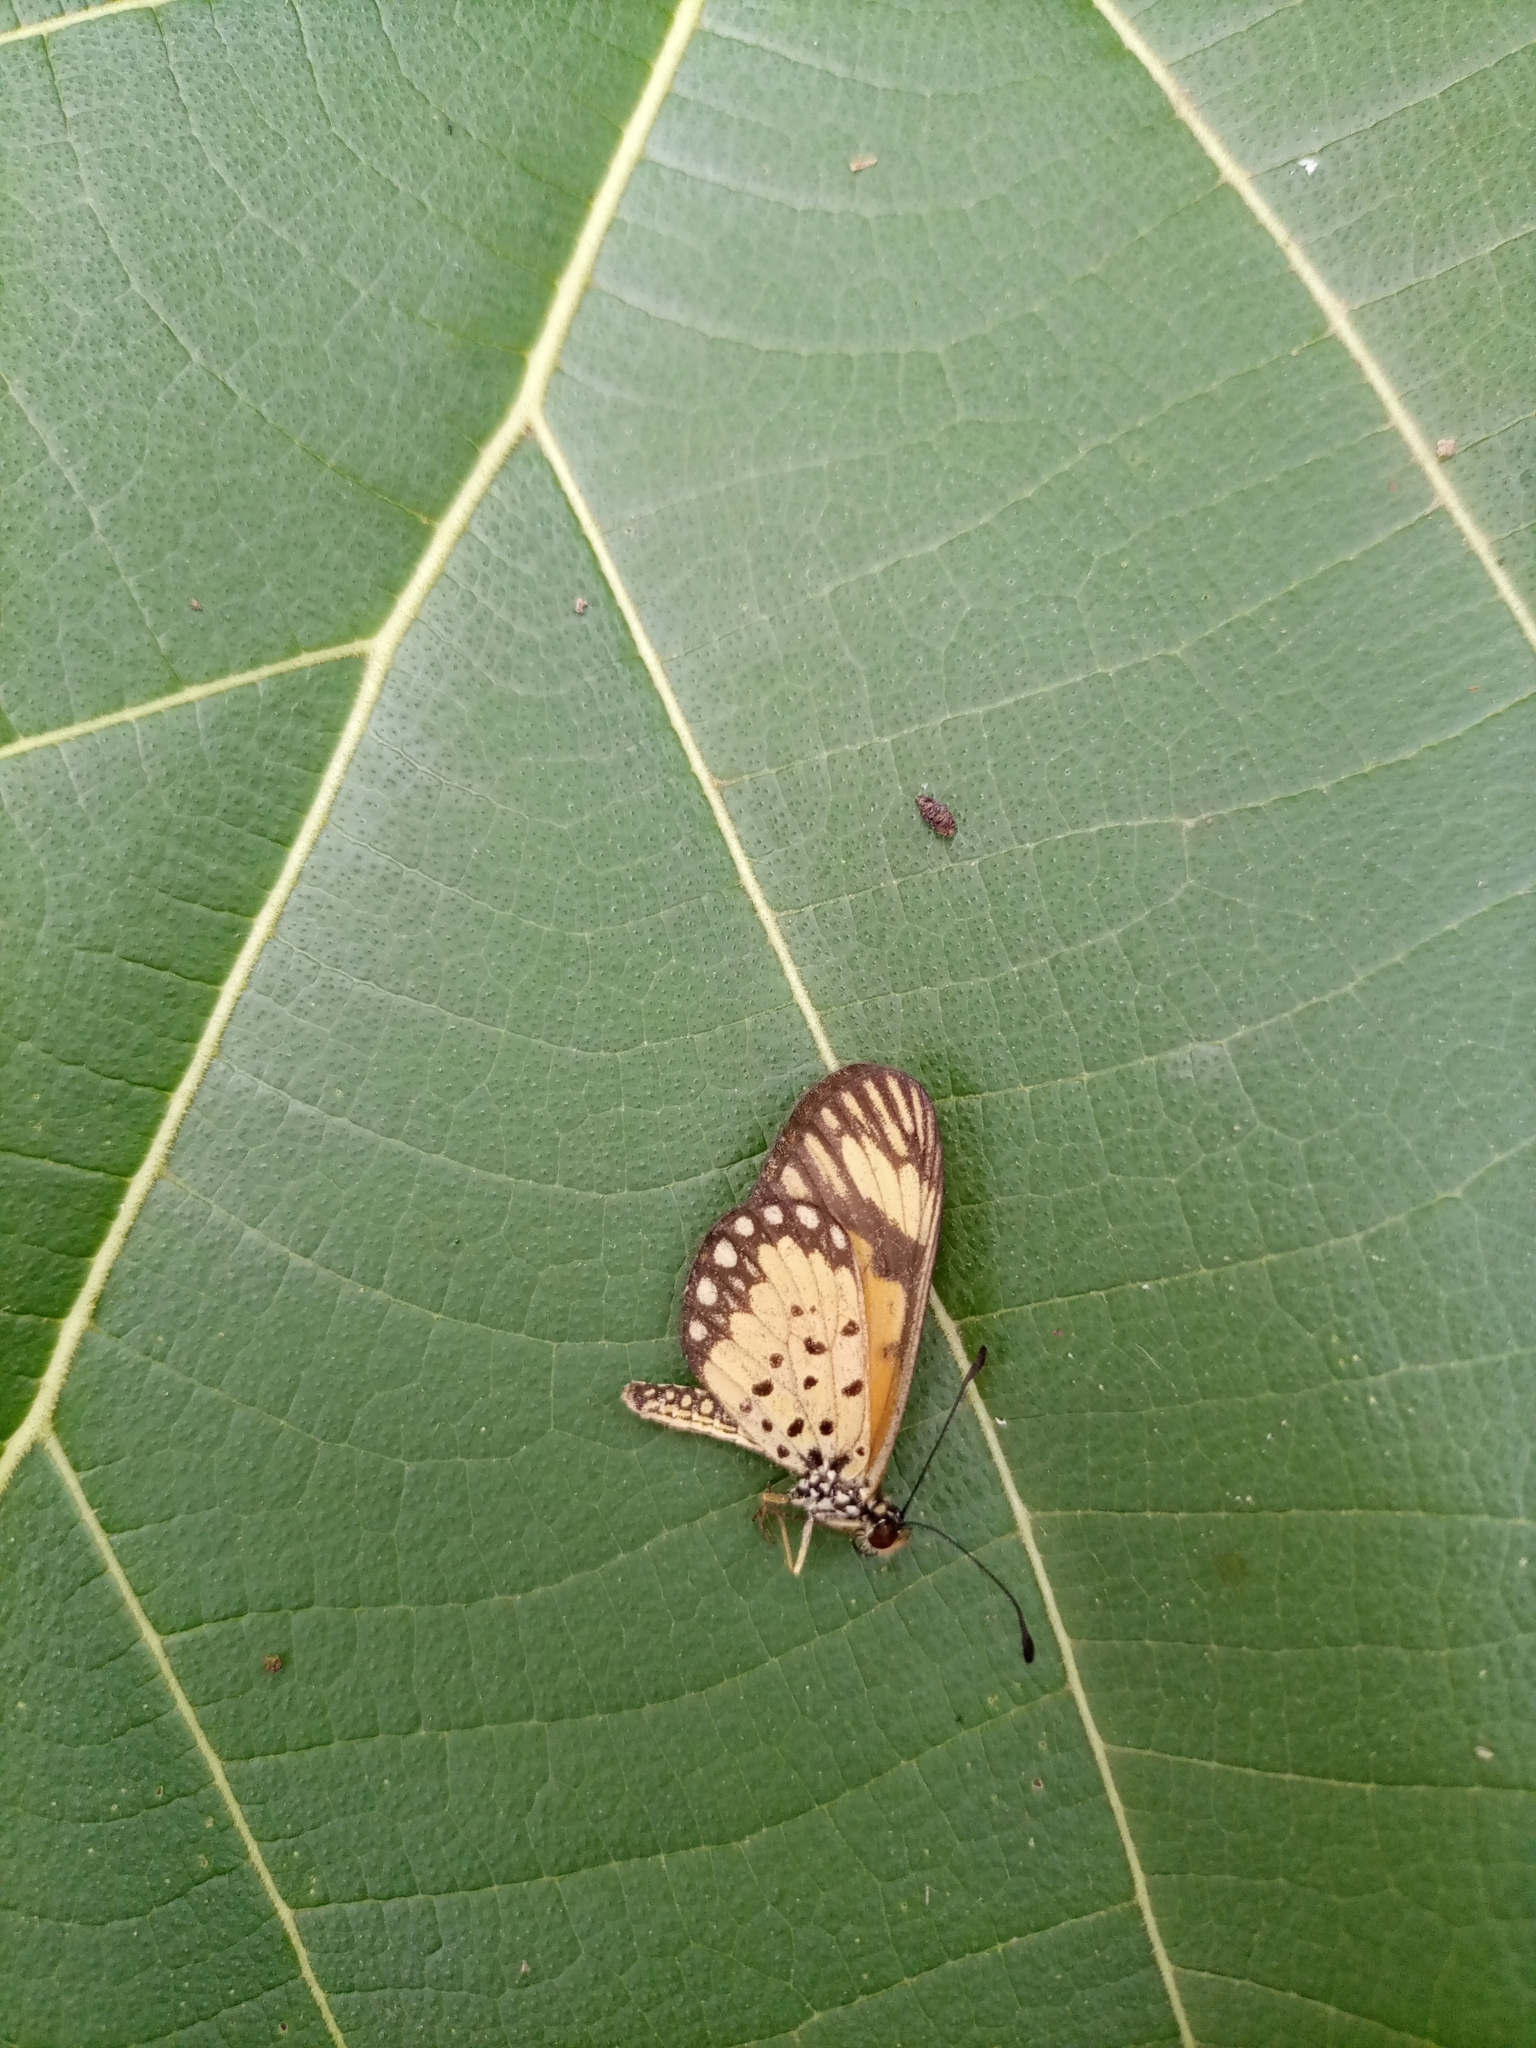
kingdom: Animalia
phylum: Arthropoda
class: Insecta
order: Lepidoptera
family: Nymphalidae
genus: Acraea
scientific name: Acraea Telchinia serena
